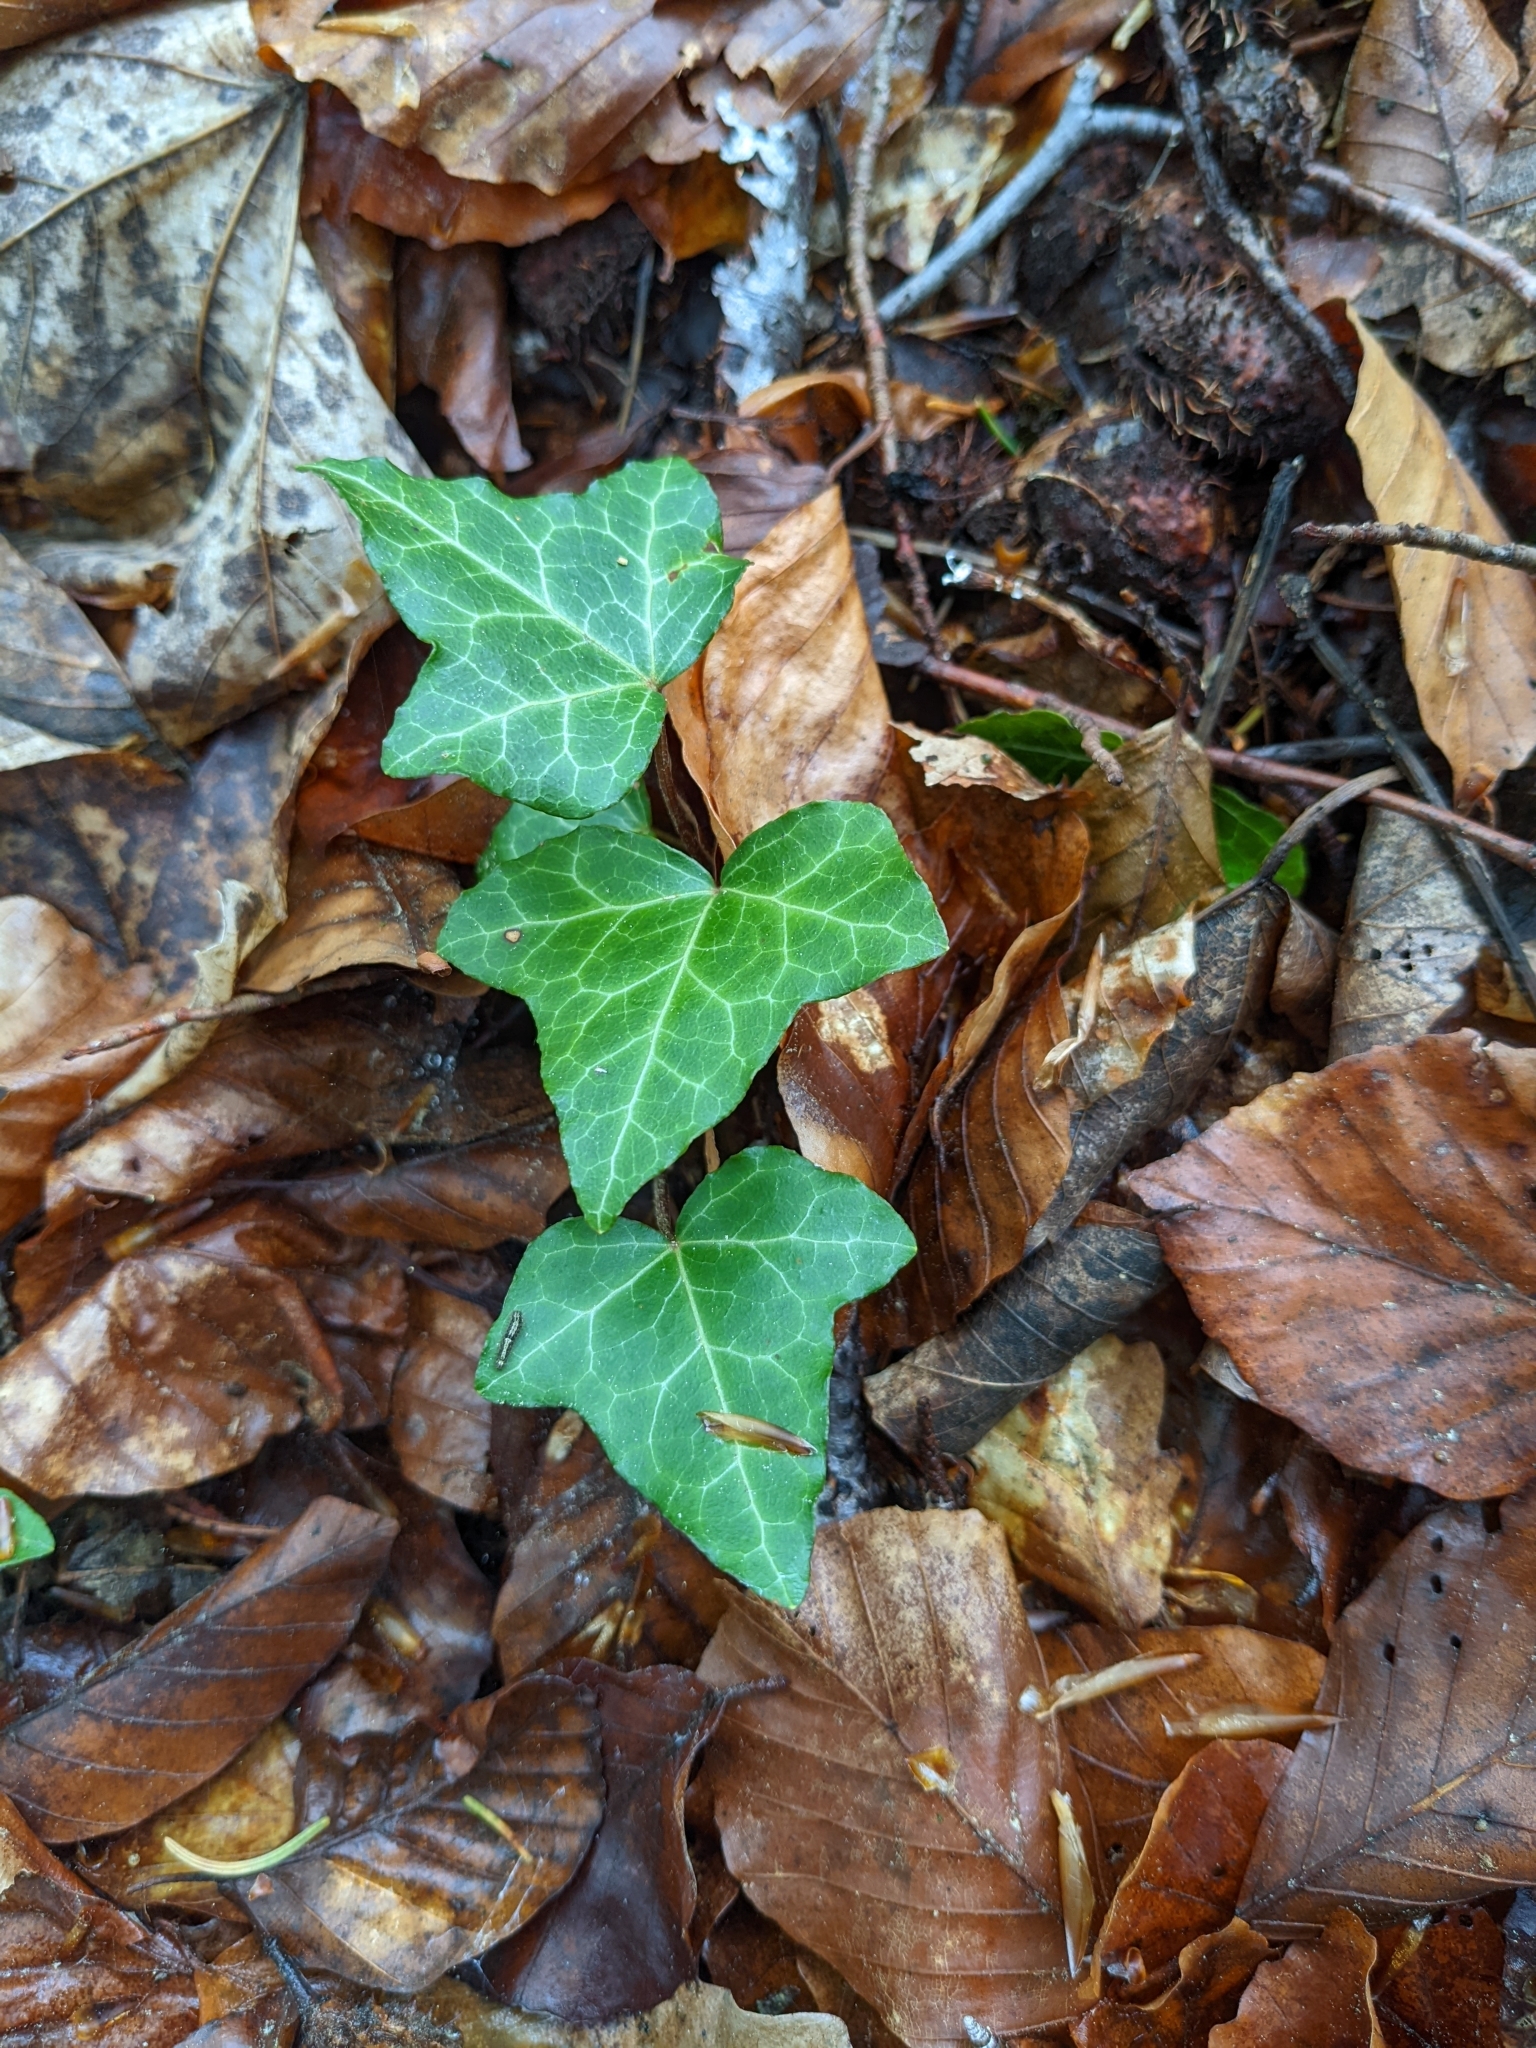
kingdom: Plantae
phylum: Tracheophyta
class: Magnoliopsida
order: Apiales
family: Araliaceae
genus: Hedera
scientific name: Hedera helix
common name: Ivy
